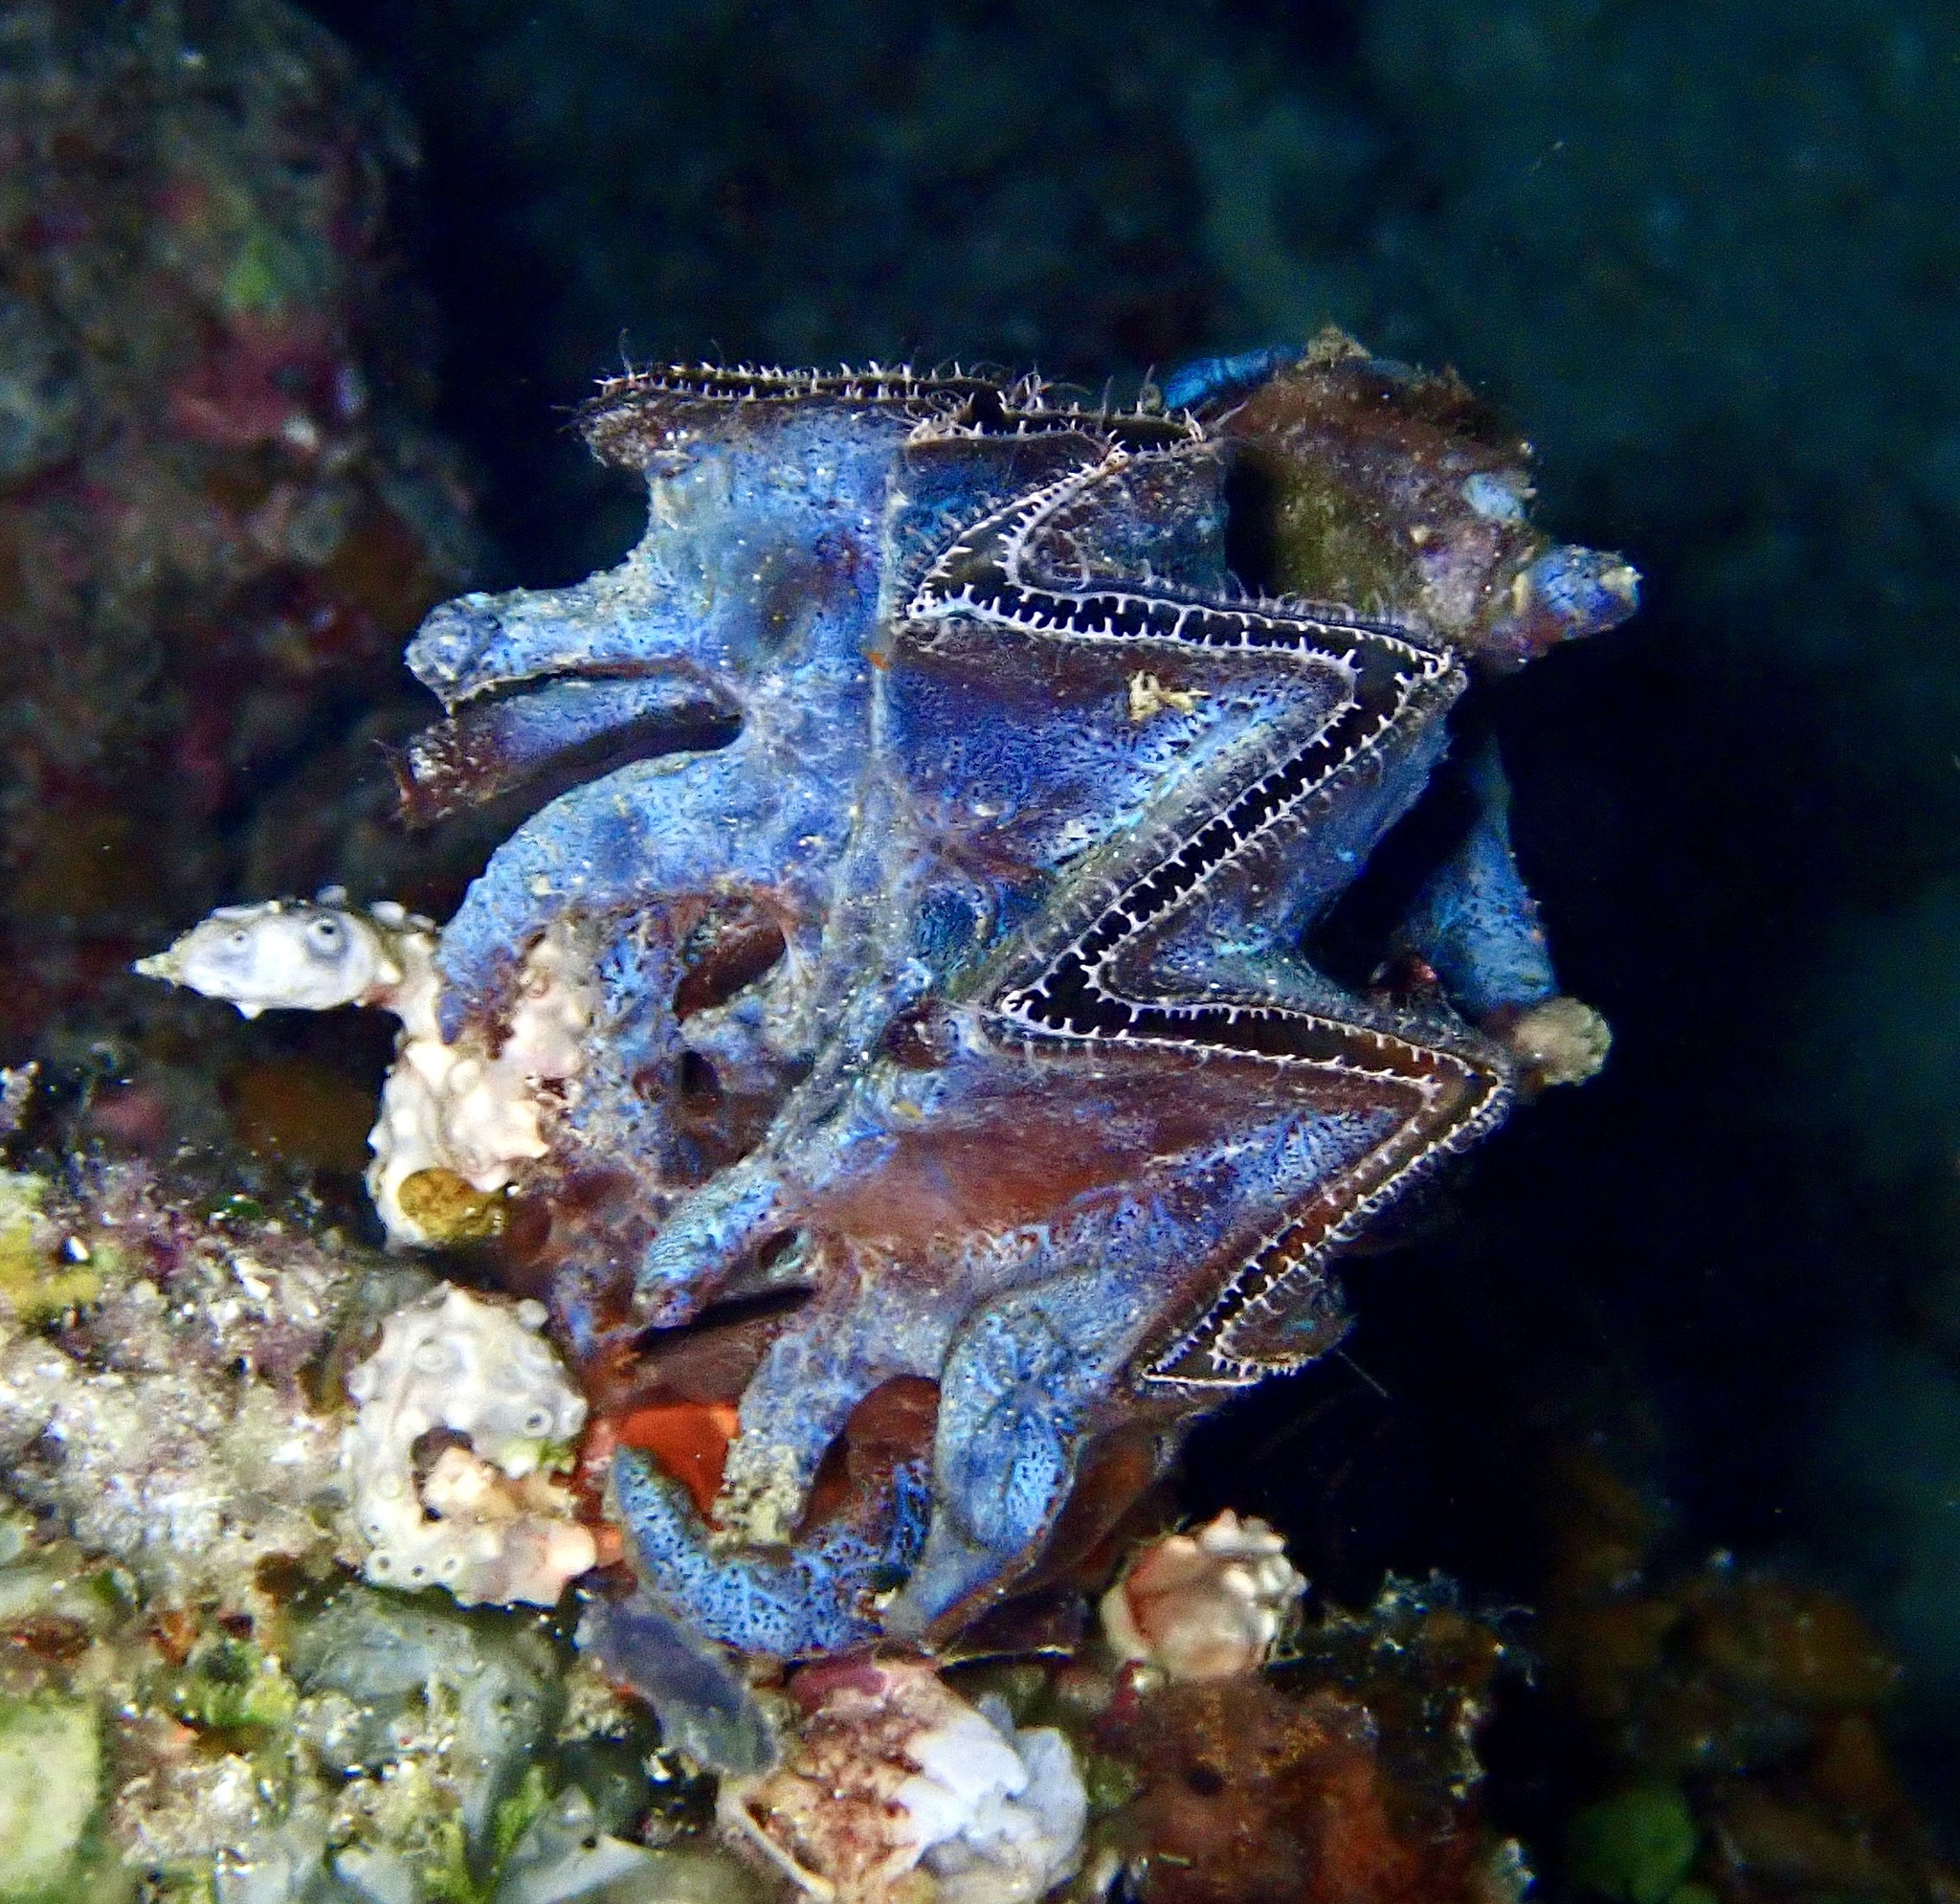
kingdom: Animalia
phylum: Mollusca
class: Bivalvia
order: Ostreida
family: Ostreidae
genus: Lopha
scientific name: Lopha cristagalli
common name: Cock's-comb oyster
